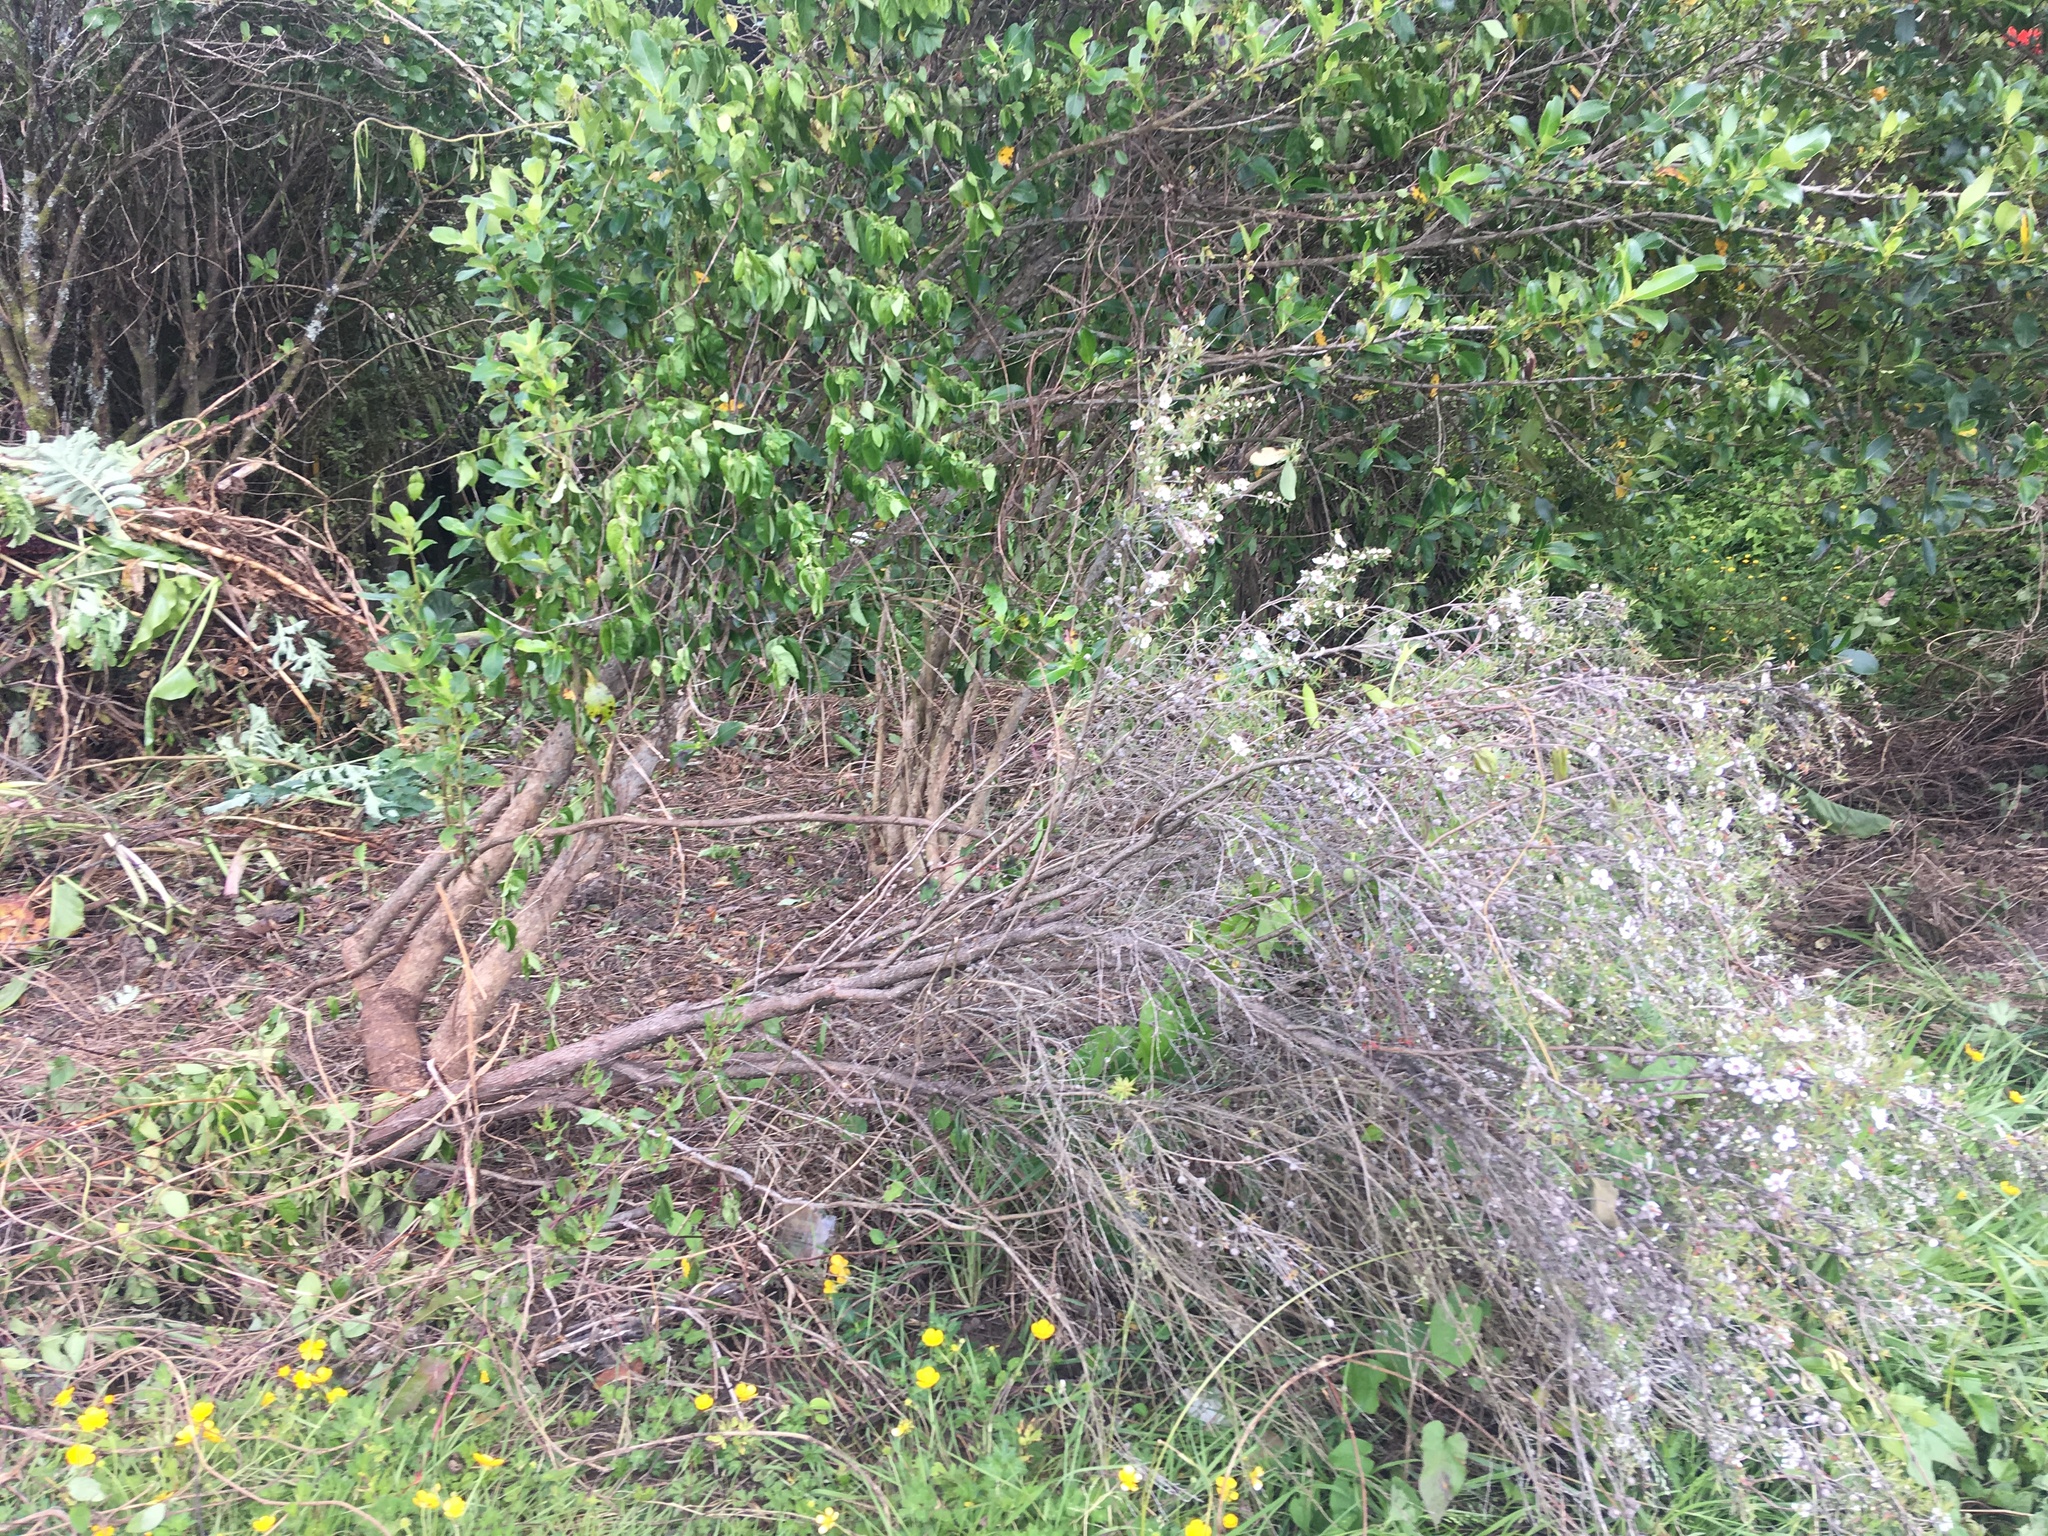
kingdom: Plantae
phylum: Tracheophyta
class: Magnoliopsida
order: Myrtales
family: Myrtaceae
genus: Leptospermum
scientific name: Leptospermum scoparium
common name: Broom tea-tree
